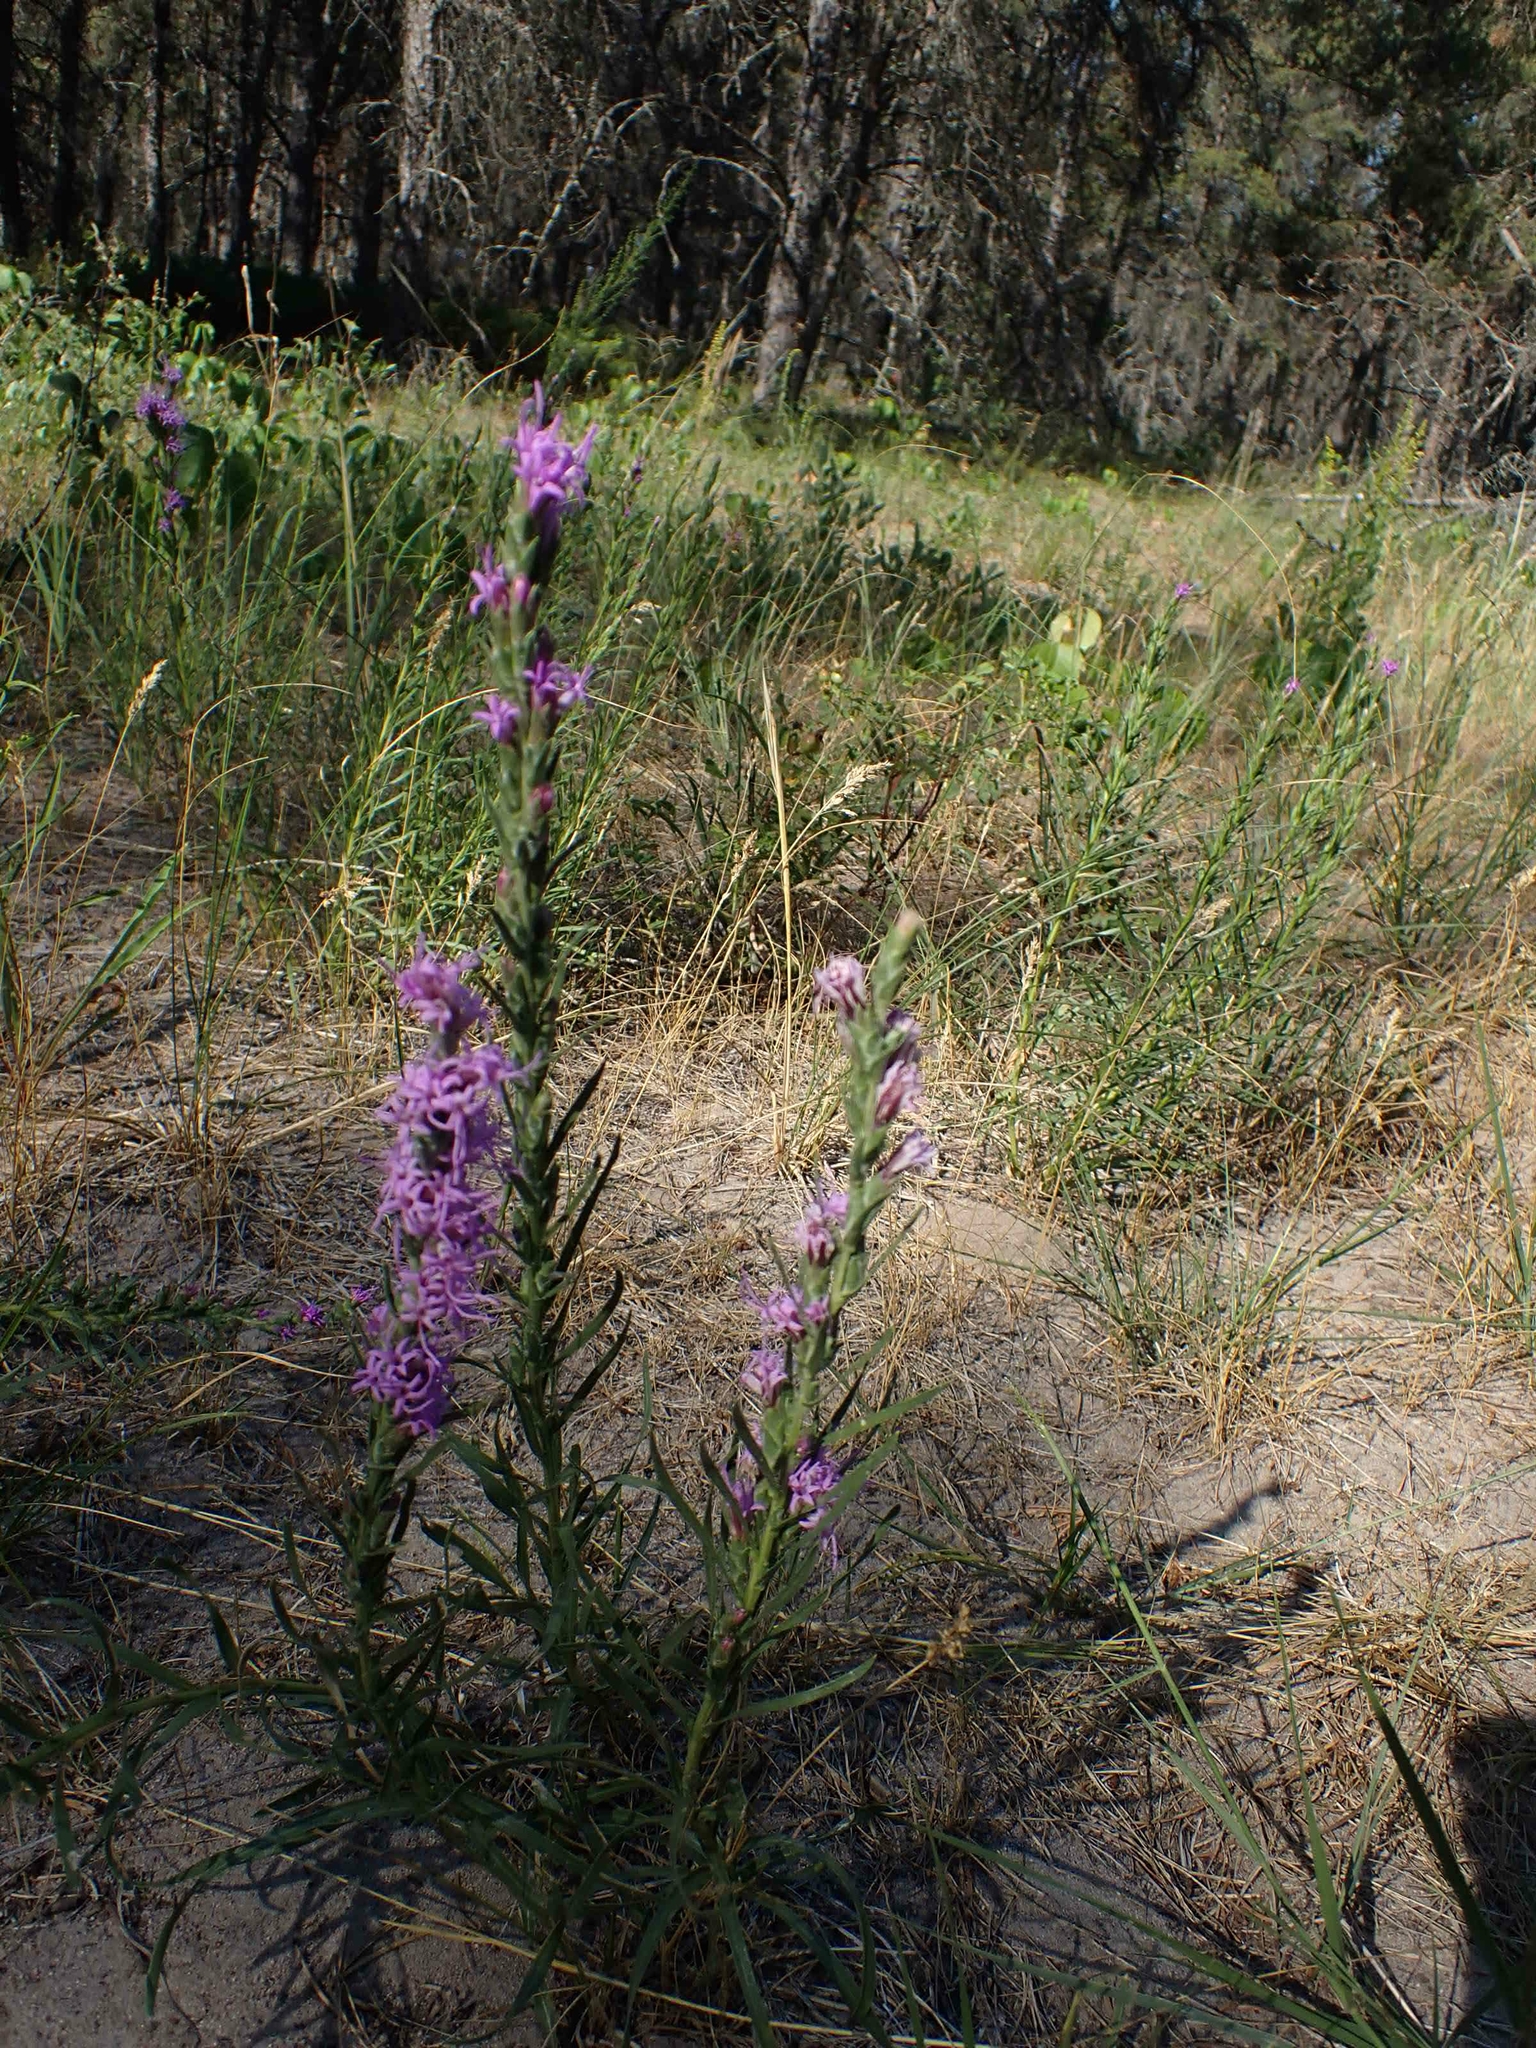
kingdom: Plantae
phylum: Tracheophyta
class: Magnoliopsida
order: Asterales
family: Asteraceae
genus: Liatris
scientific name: Liatris punctata
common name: Dotted gayfeather
